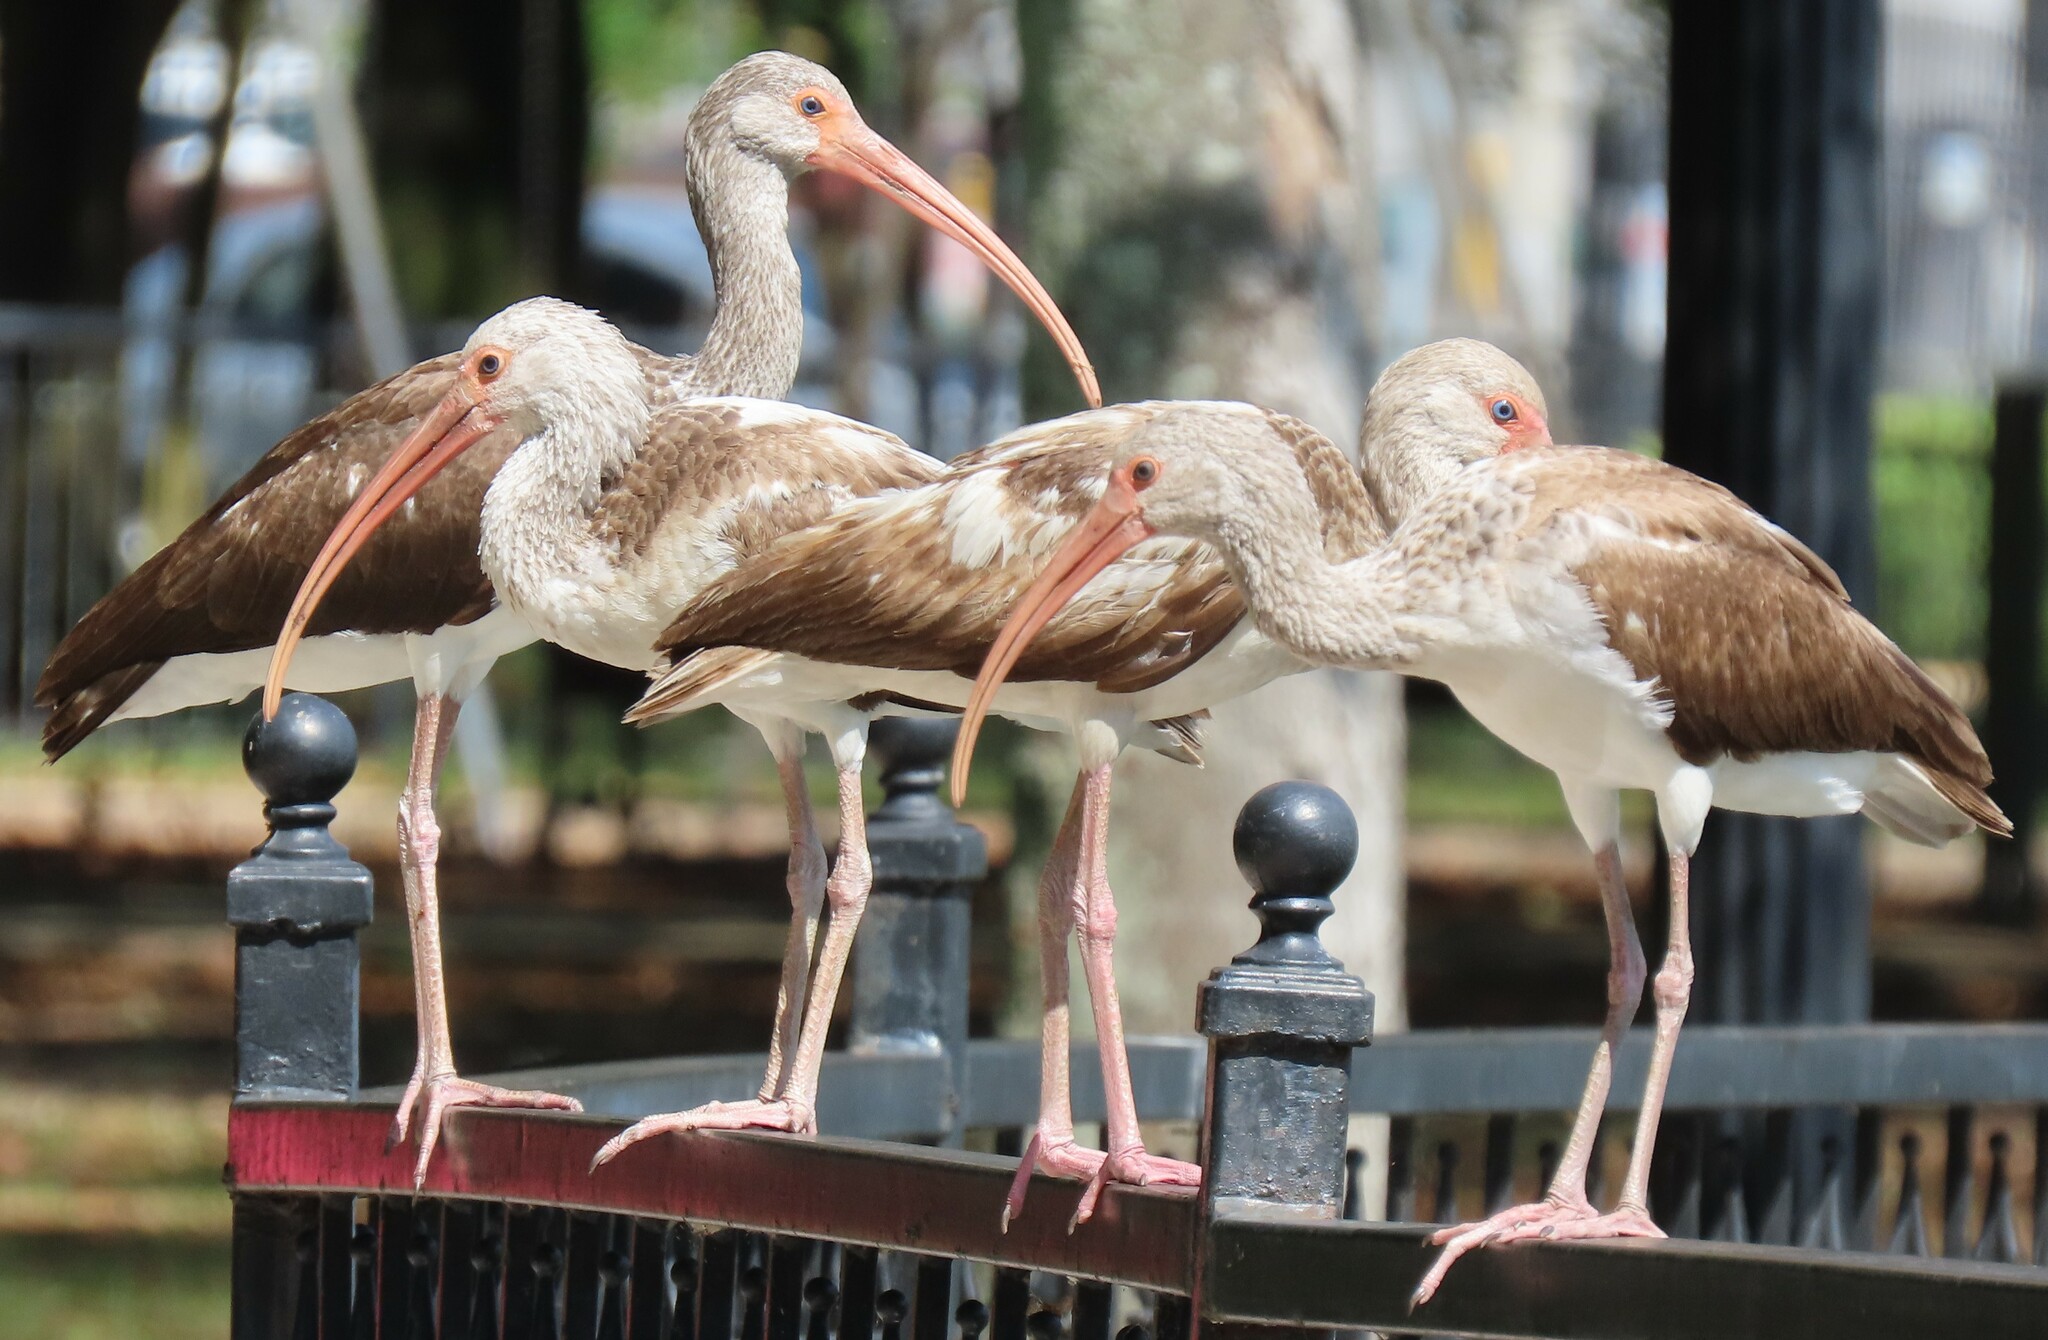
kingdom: Animalia
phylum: Chordata
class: Aves
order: Pelecaniformes
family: Threskiornithidae
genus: Eudocimus
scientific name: Eudocimus albus
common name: White ibis
